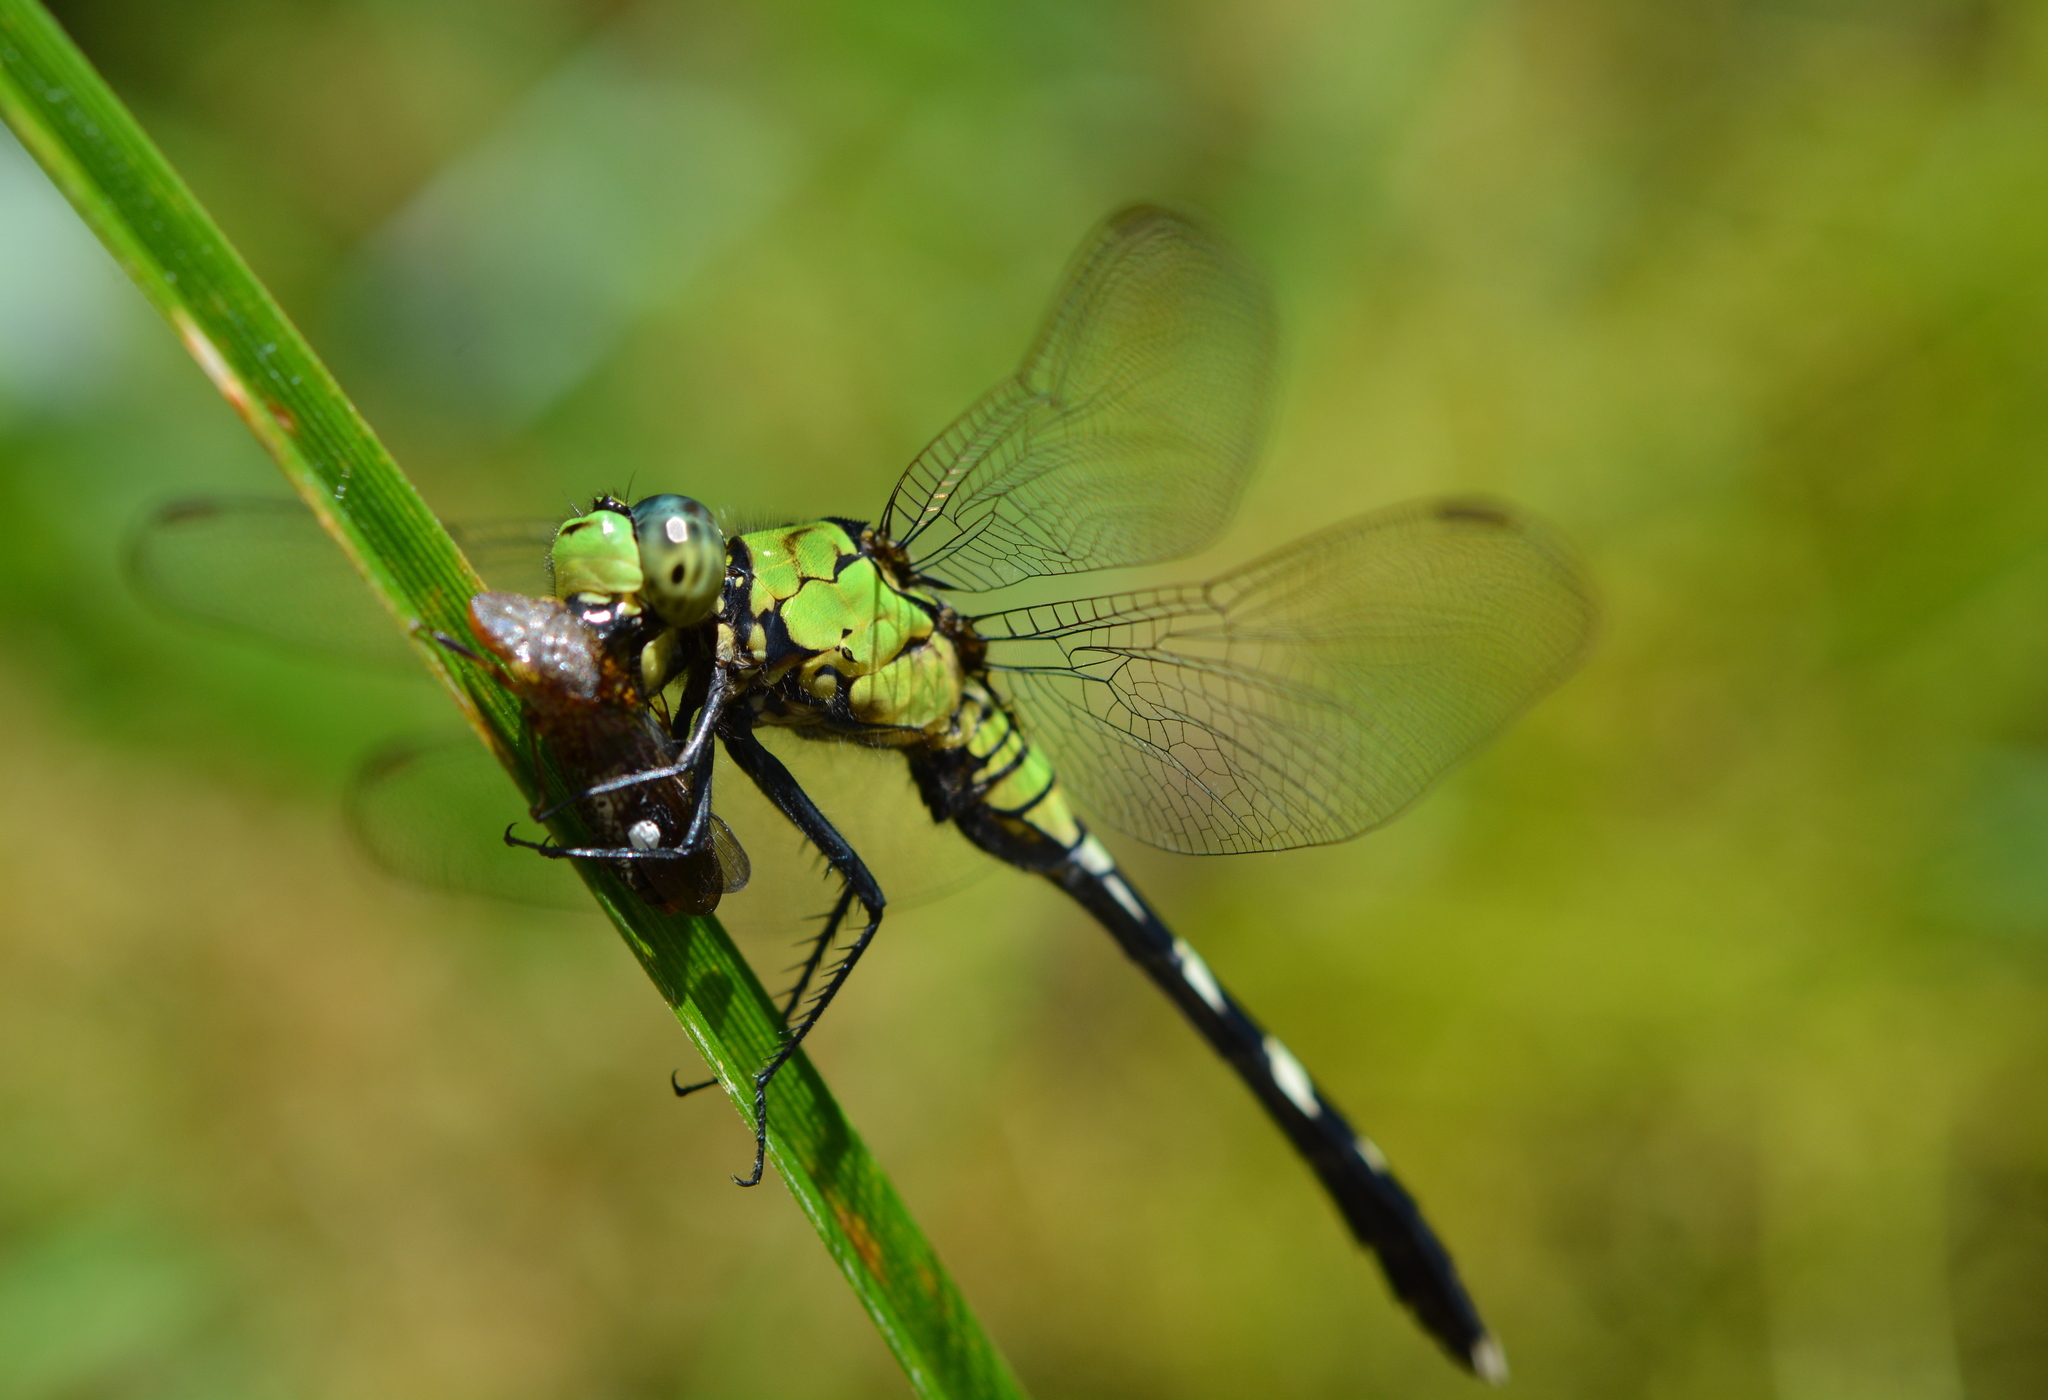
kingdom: Animalia
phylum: Arthropoda
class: Insecta
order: Odonata
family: Libellulidae
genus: Erythemis
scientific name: Erythemis simplicicollis
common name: Eastern pondhawk
